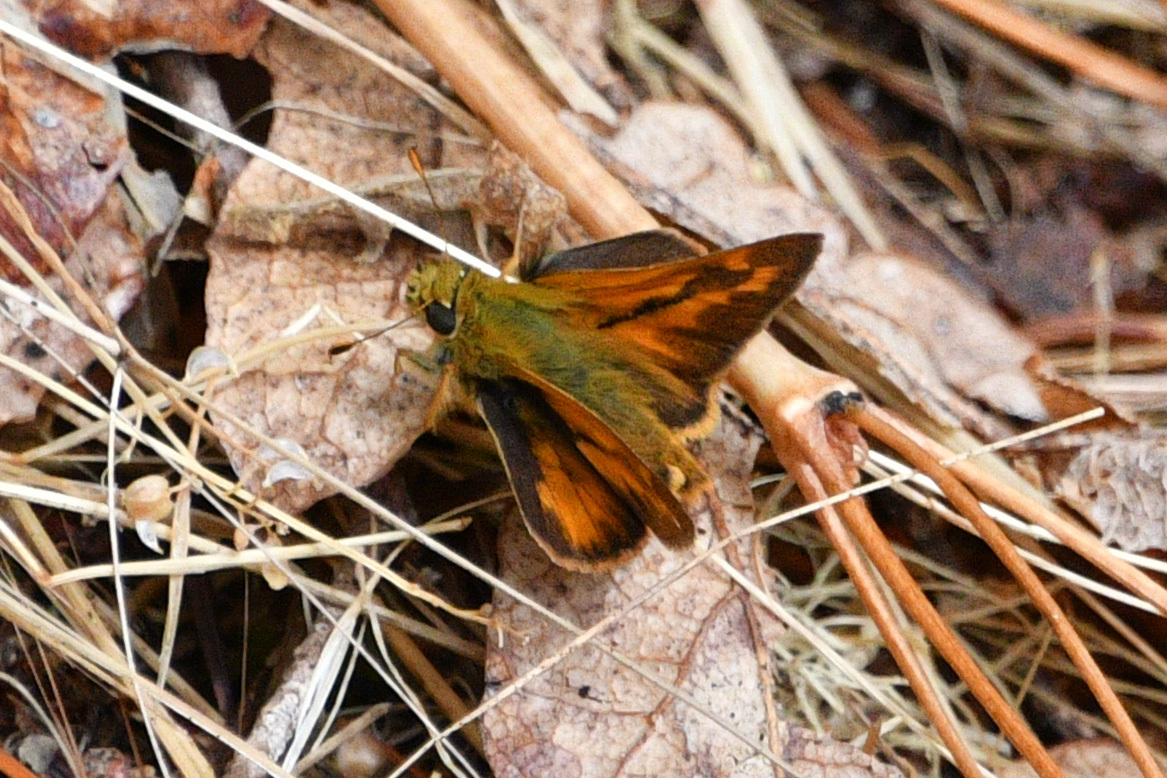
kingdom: Animalia
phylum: Arthropoda
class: Insecta
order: Lepidoptera
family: Hesperiidae
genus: Ochlodes
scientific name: Ochlodes sylvanoides
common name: Woodland skipper
